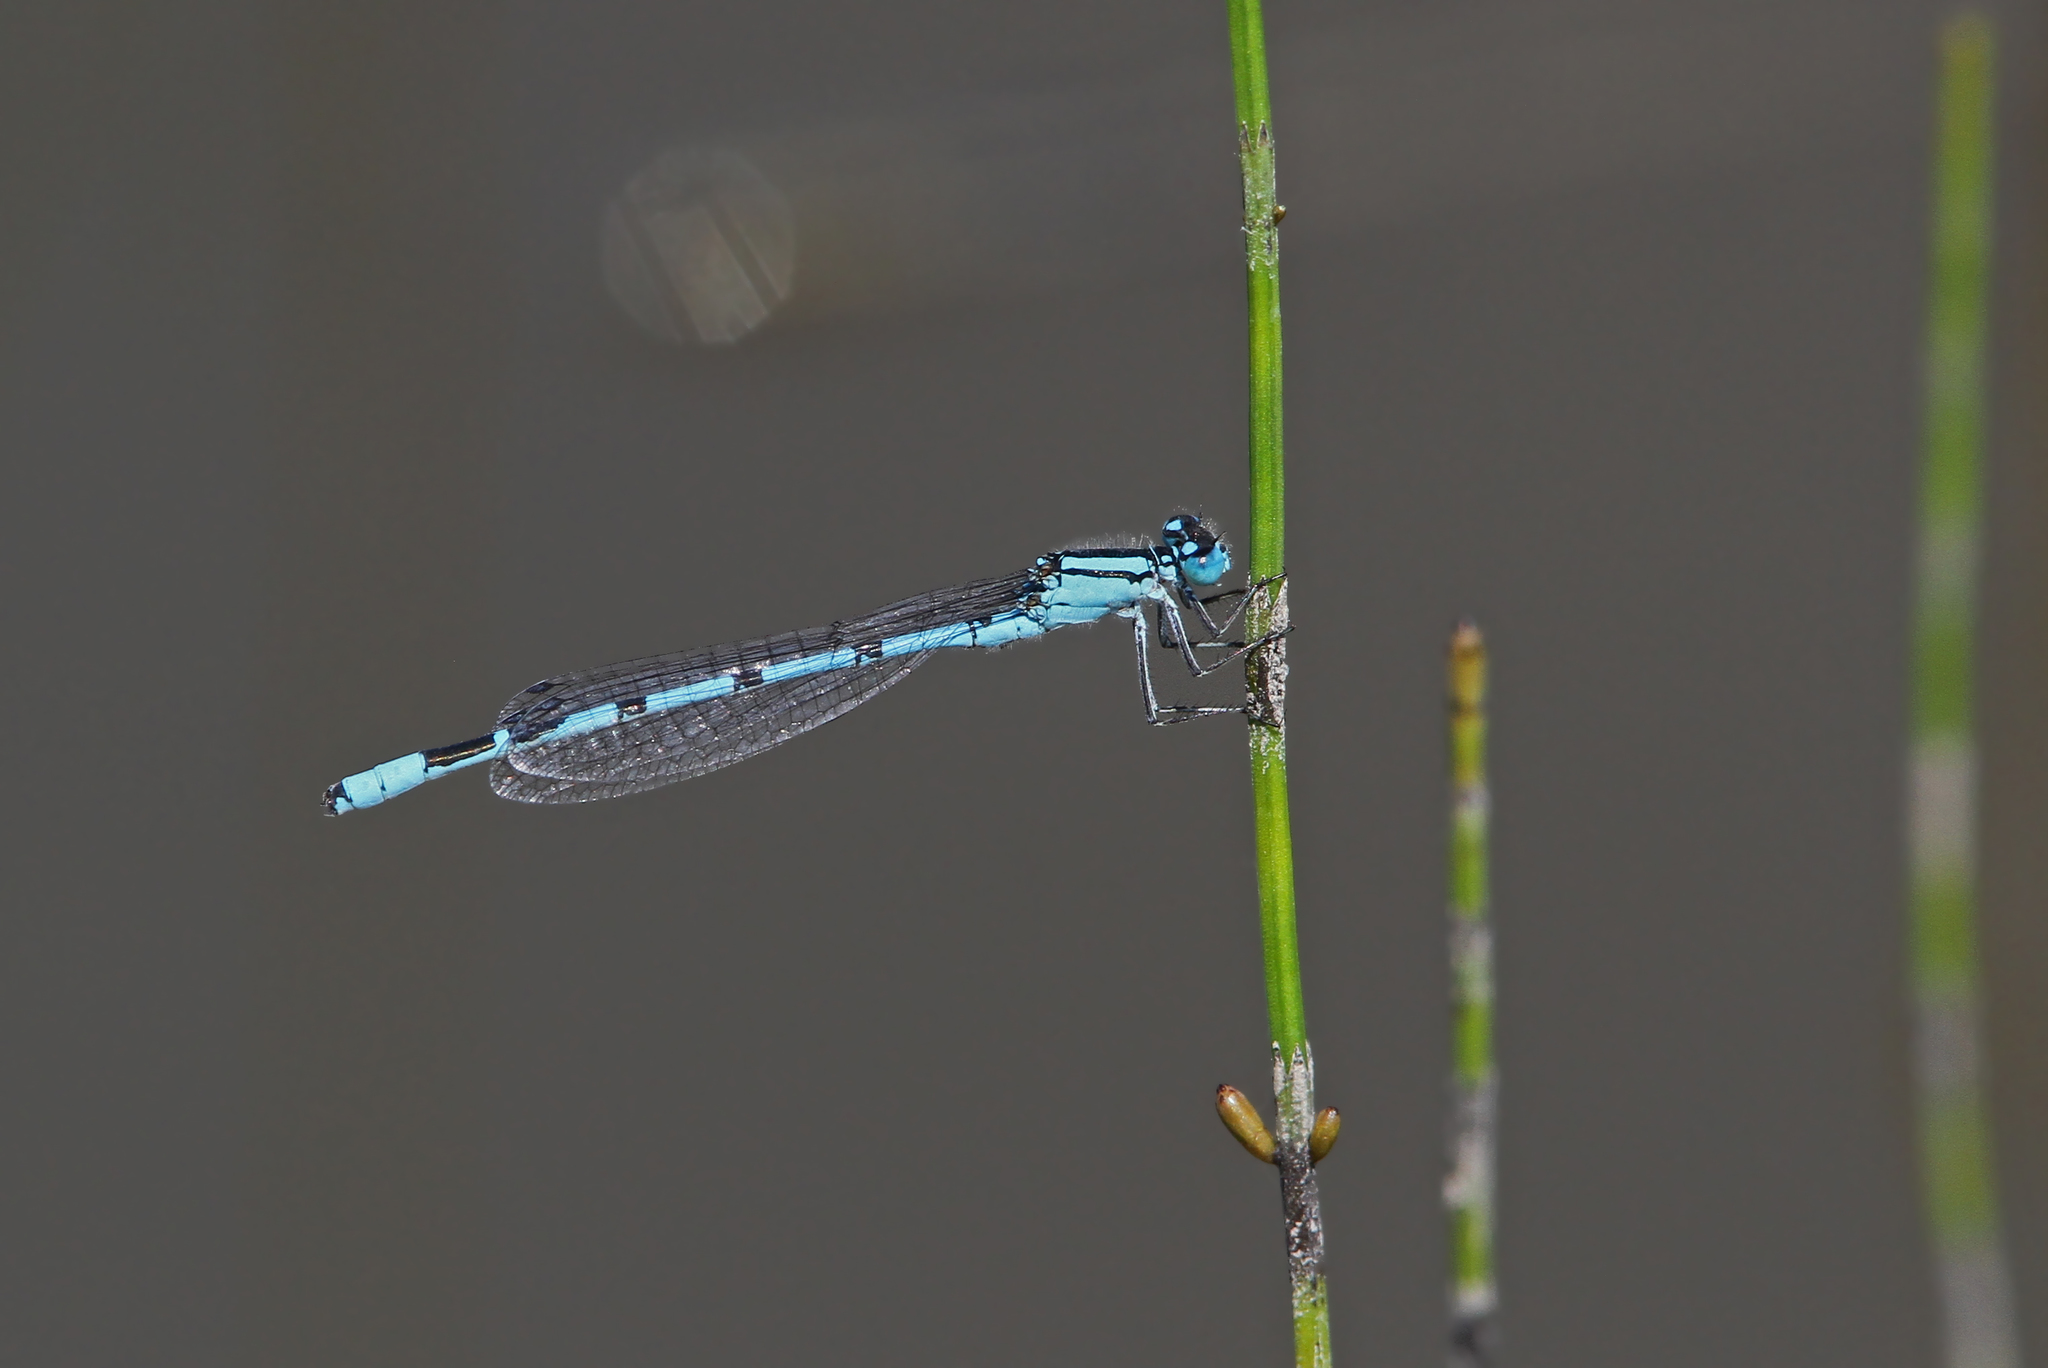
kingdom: Animalia
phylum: Arthropoda
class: Insecta
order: Odonata
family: Coenagrionidae
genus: Enallagma
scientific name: Enallagma cyathigerum
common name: Common blue damselfly
